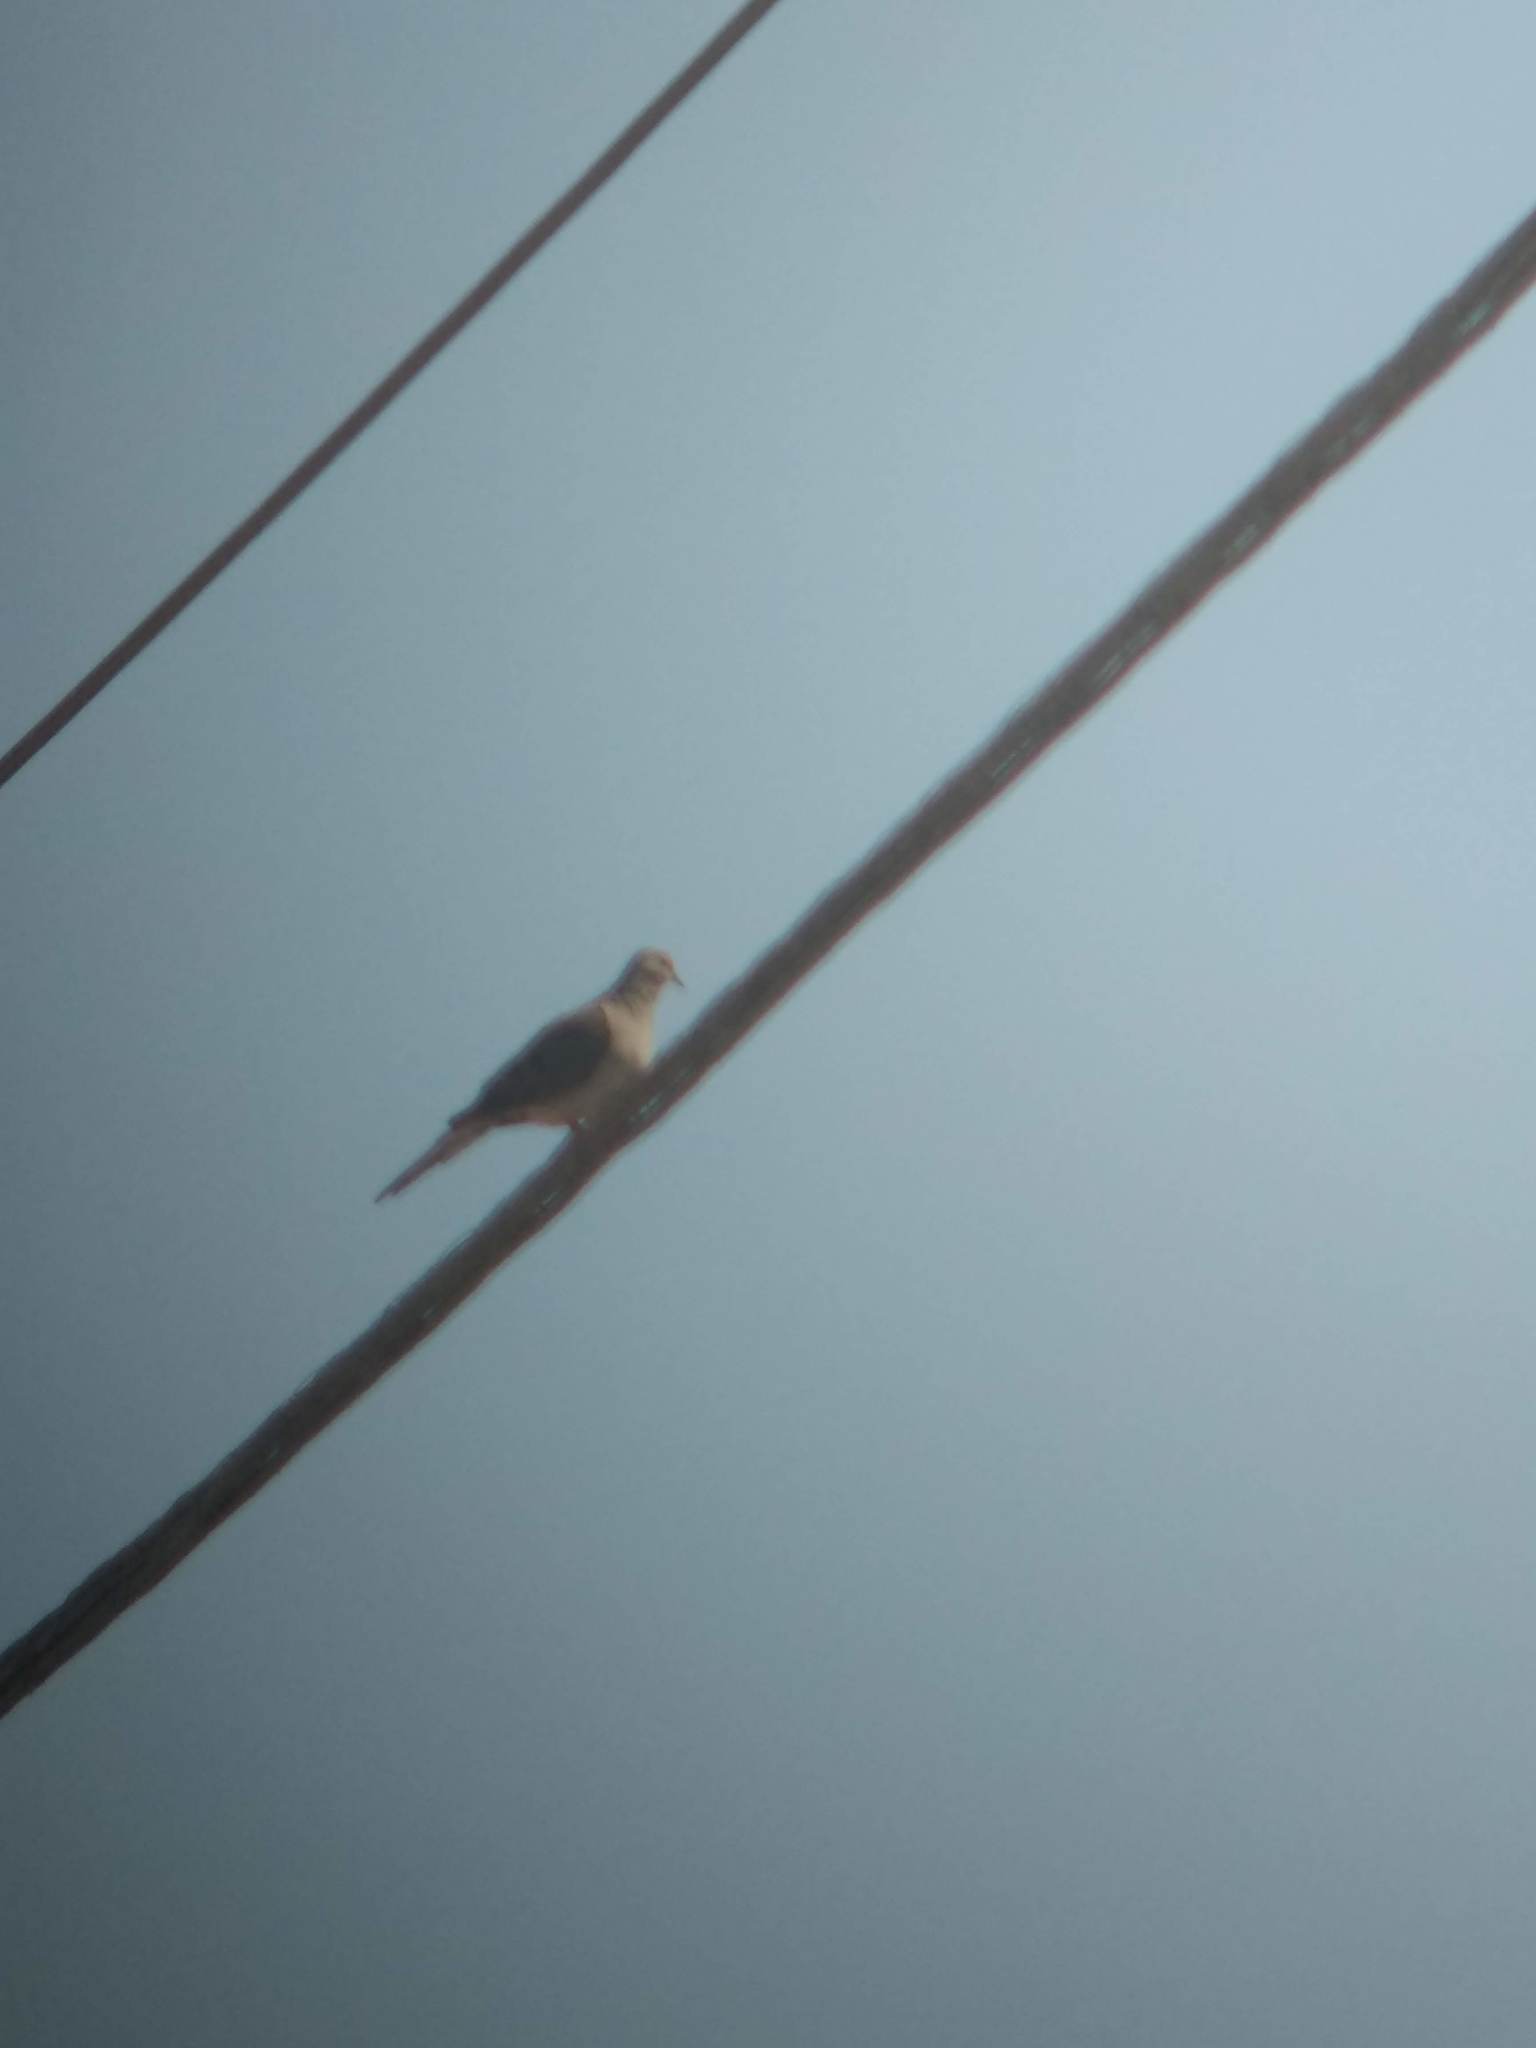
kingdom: Animalia
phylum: Chordata
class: Aves
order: Columbiformes
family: Columbidae
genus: Zenaida
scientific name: Zenaida macroura
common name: Mourning dove
